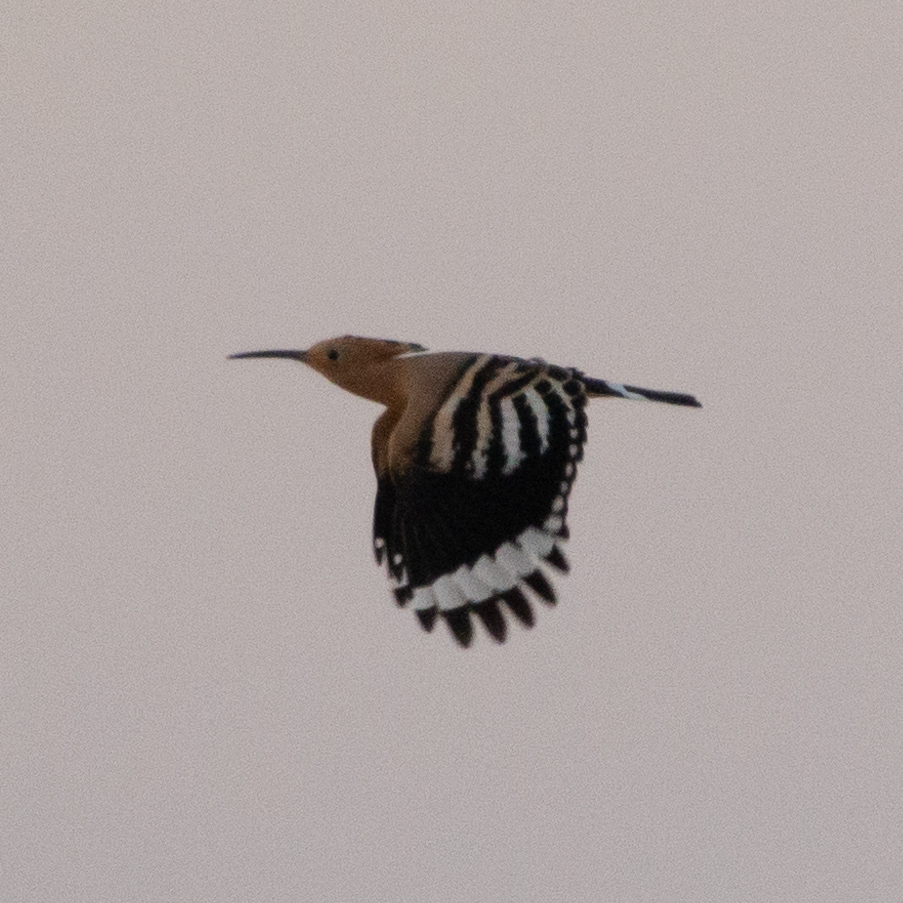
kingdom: Animalia
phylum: Chordata
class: Aves
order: Bucerotiformes
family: Upupidae
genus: Upupa
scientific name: Upupa epops
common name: Eurasian hoopoe
